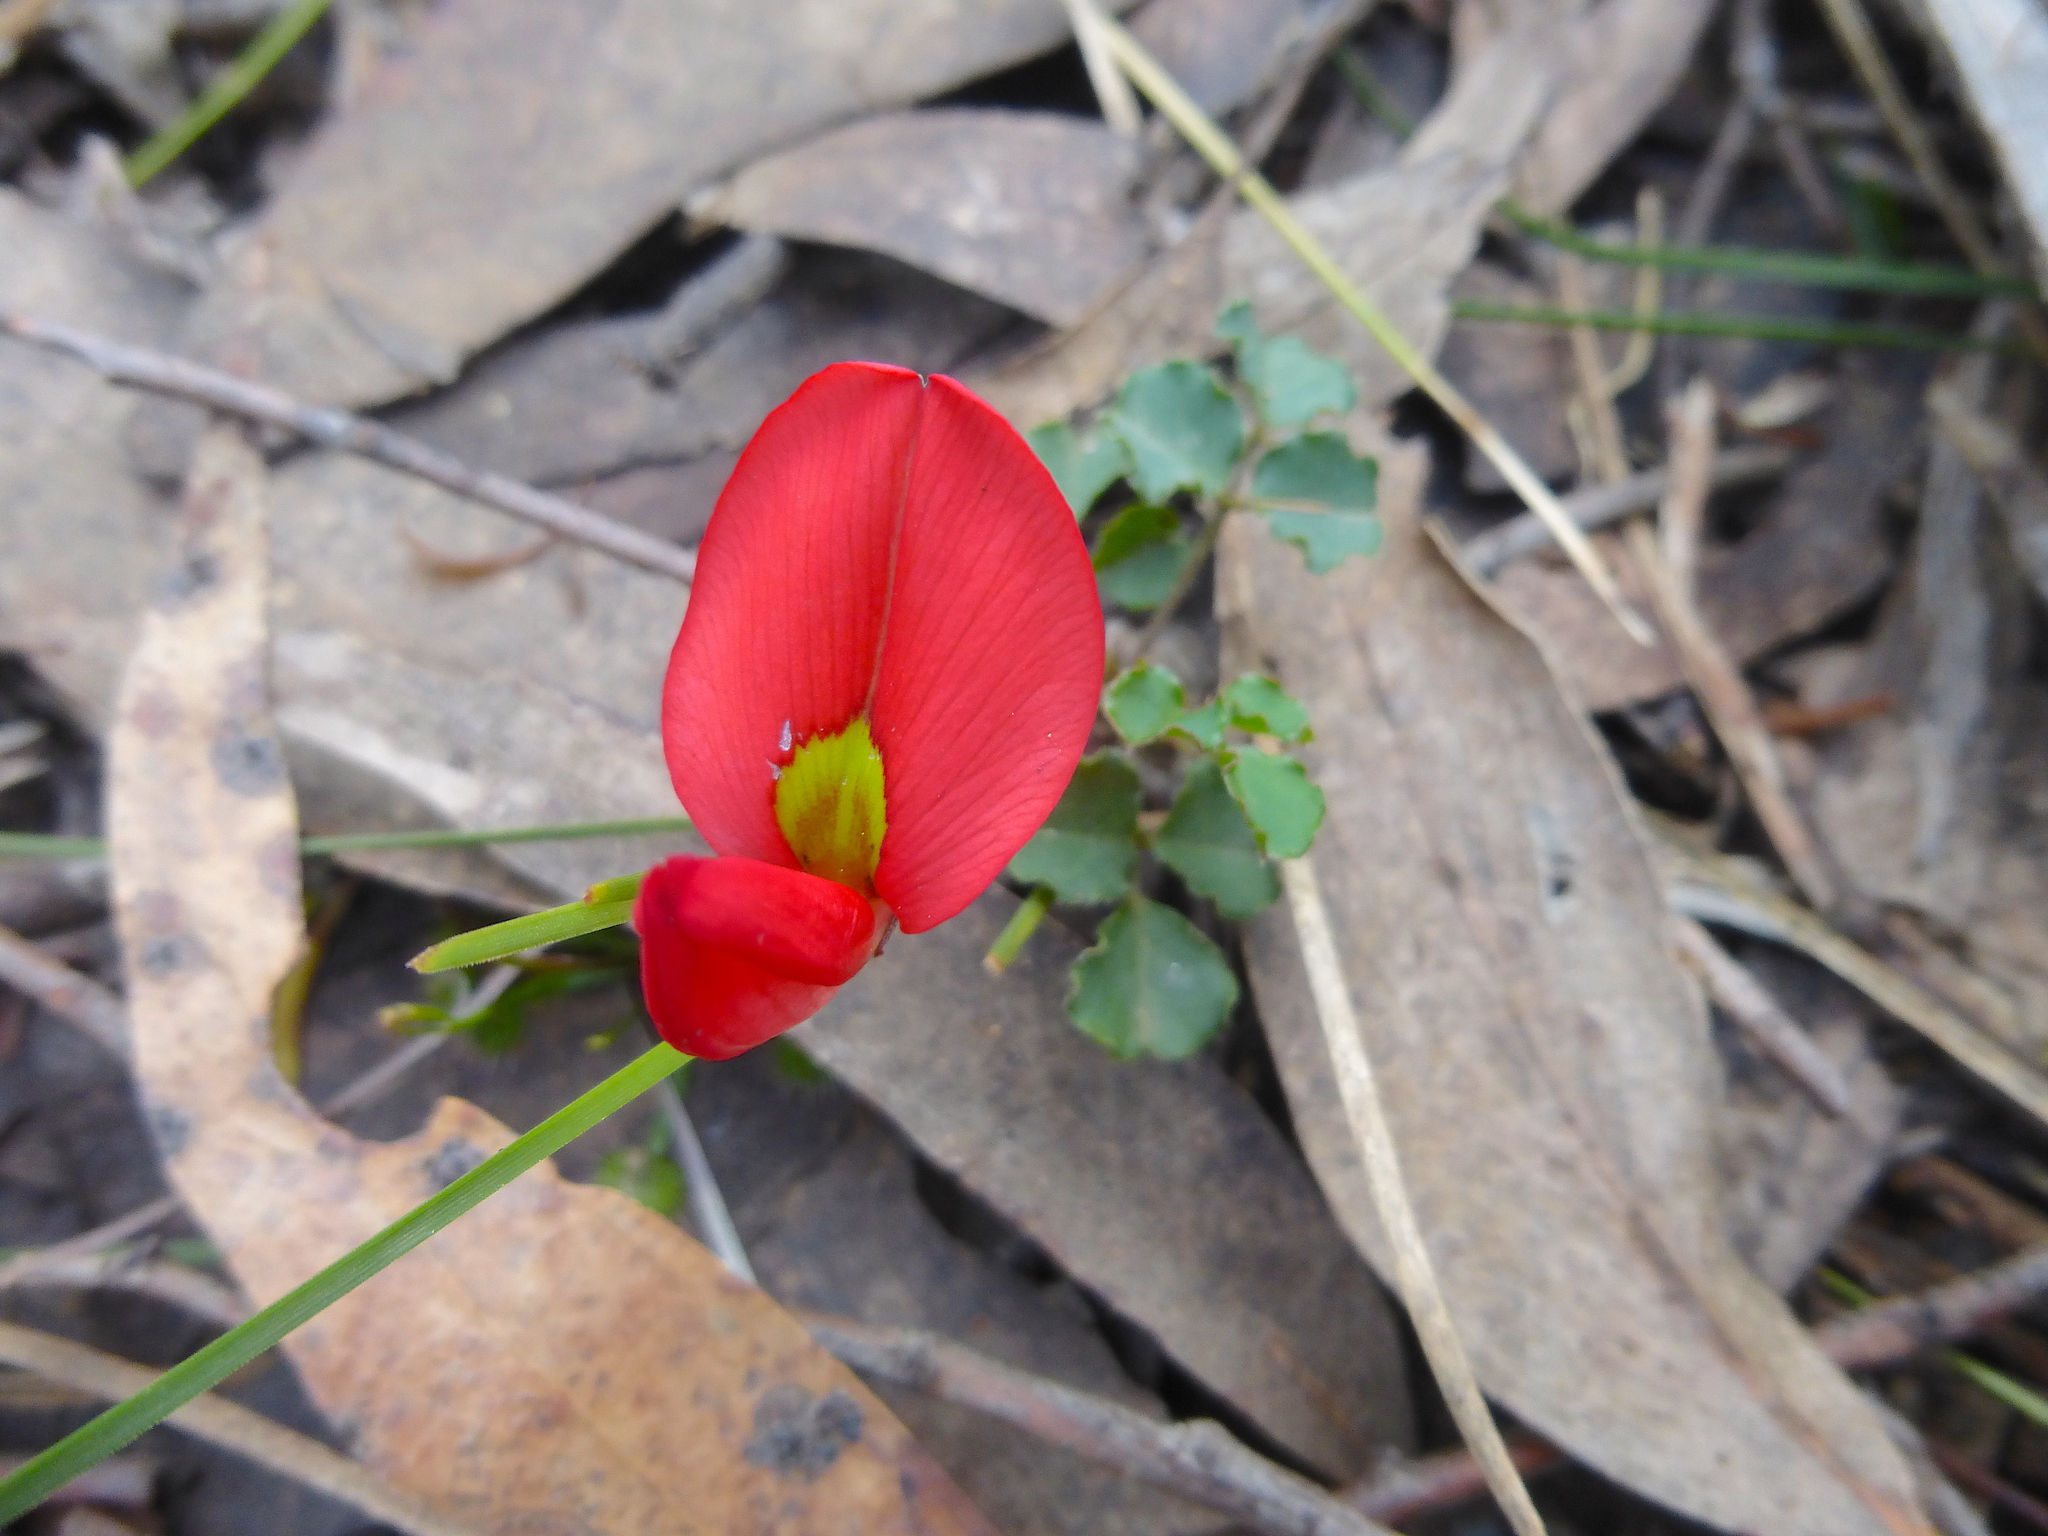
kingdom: Plantae
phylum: Tracheophyta
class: Magnoliopsida
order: Fabales
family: Fabaceae
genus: Kennedia
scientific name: Kennedia prostrata
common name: Running-postman
